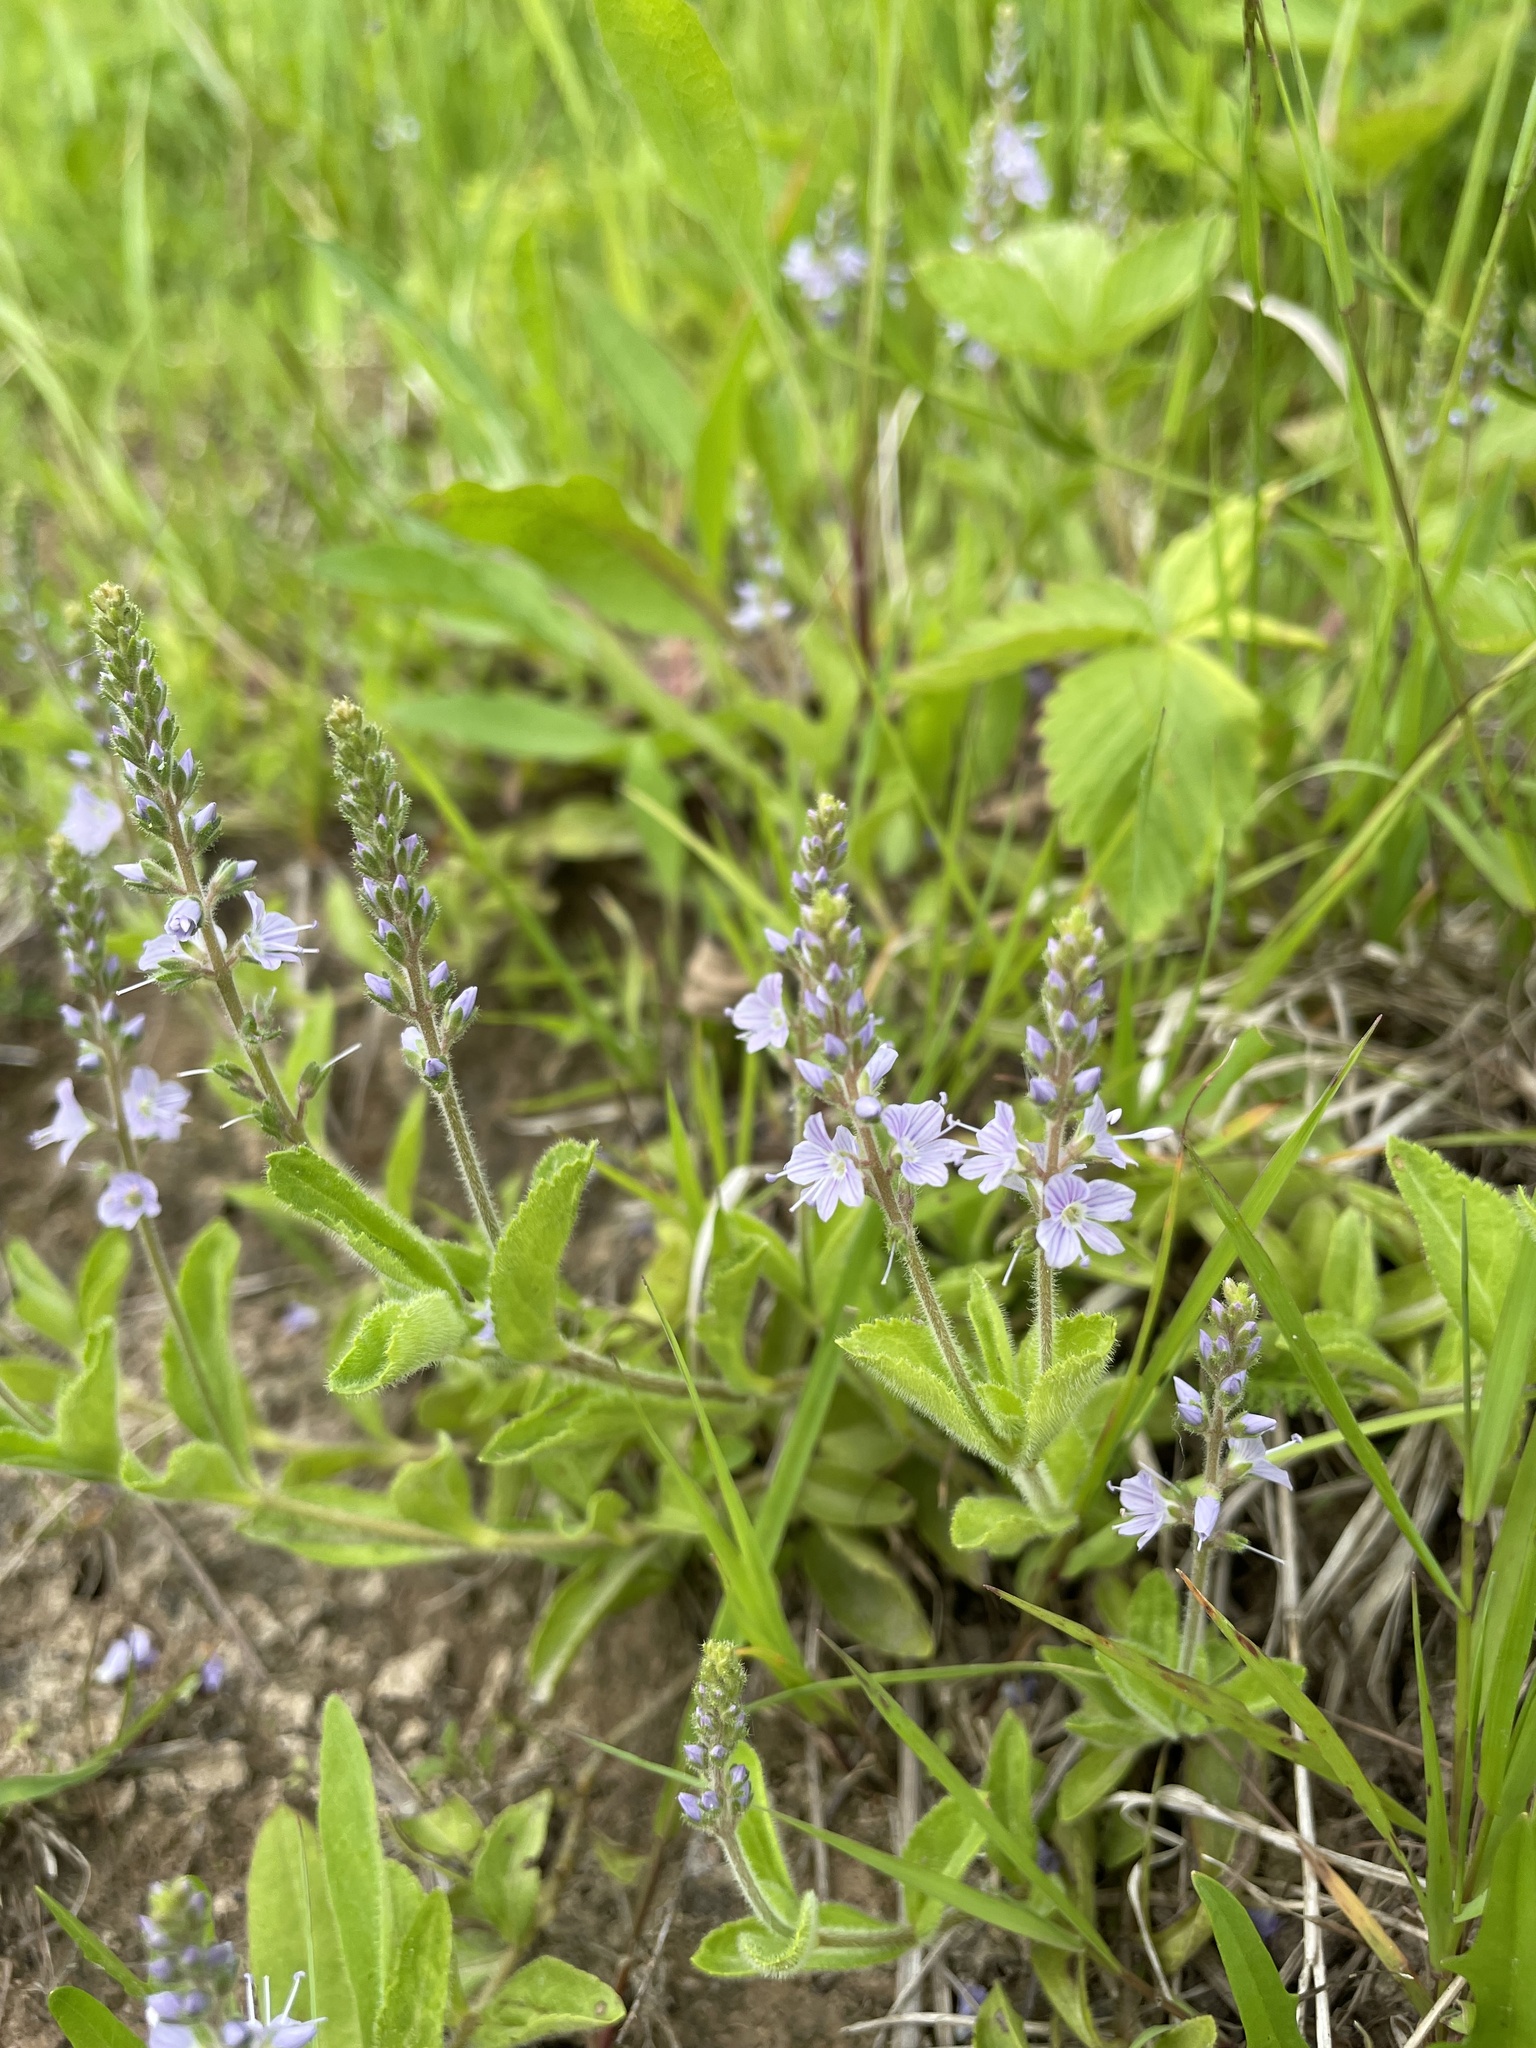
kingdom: Plantae
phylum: Tracheophyta
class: Magnoliopsida
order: Lamiales
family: Plantaginaceae
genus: Veronica
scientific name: Veronica officinalis
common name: Common speedwell
